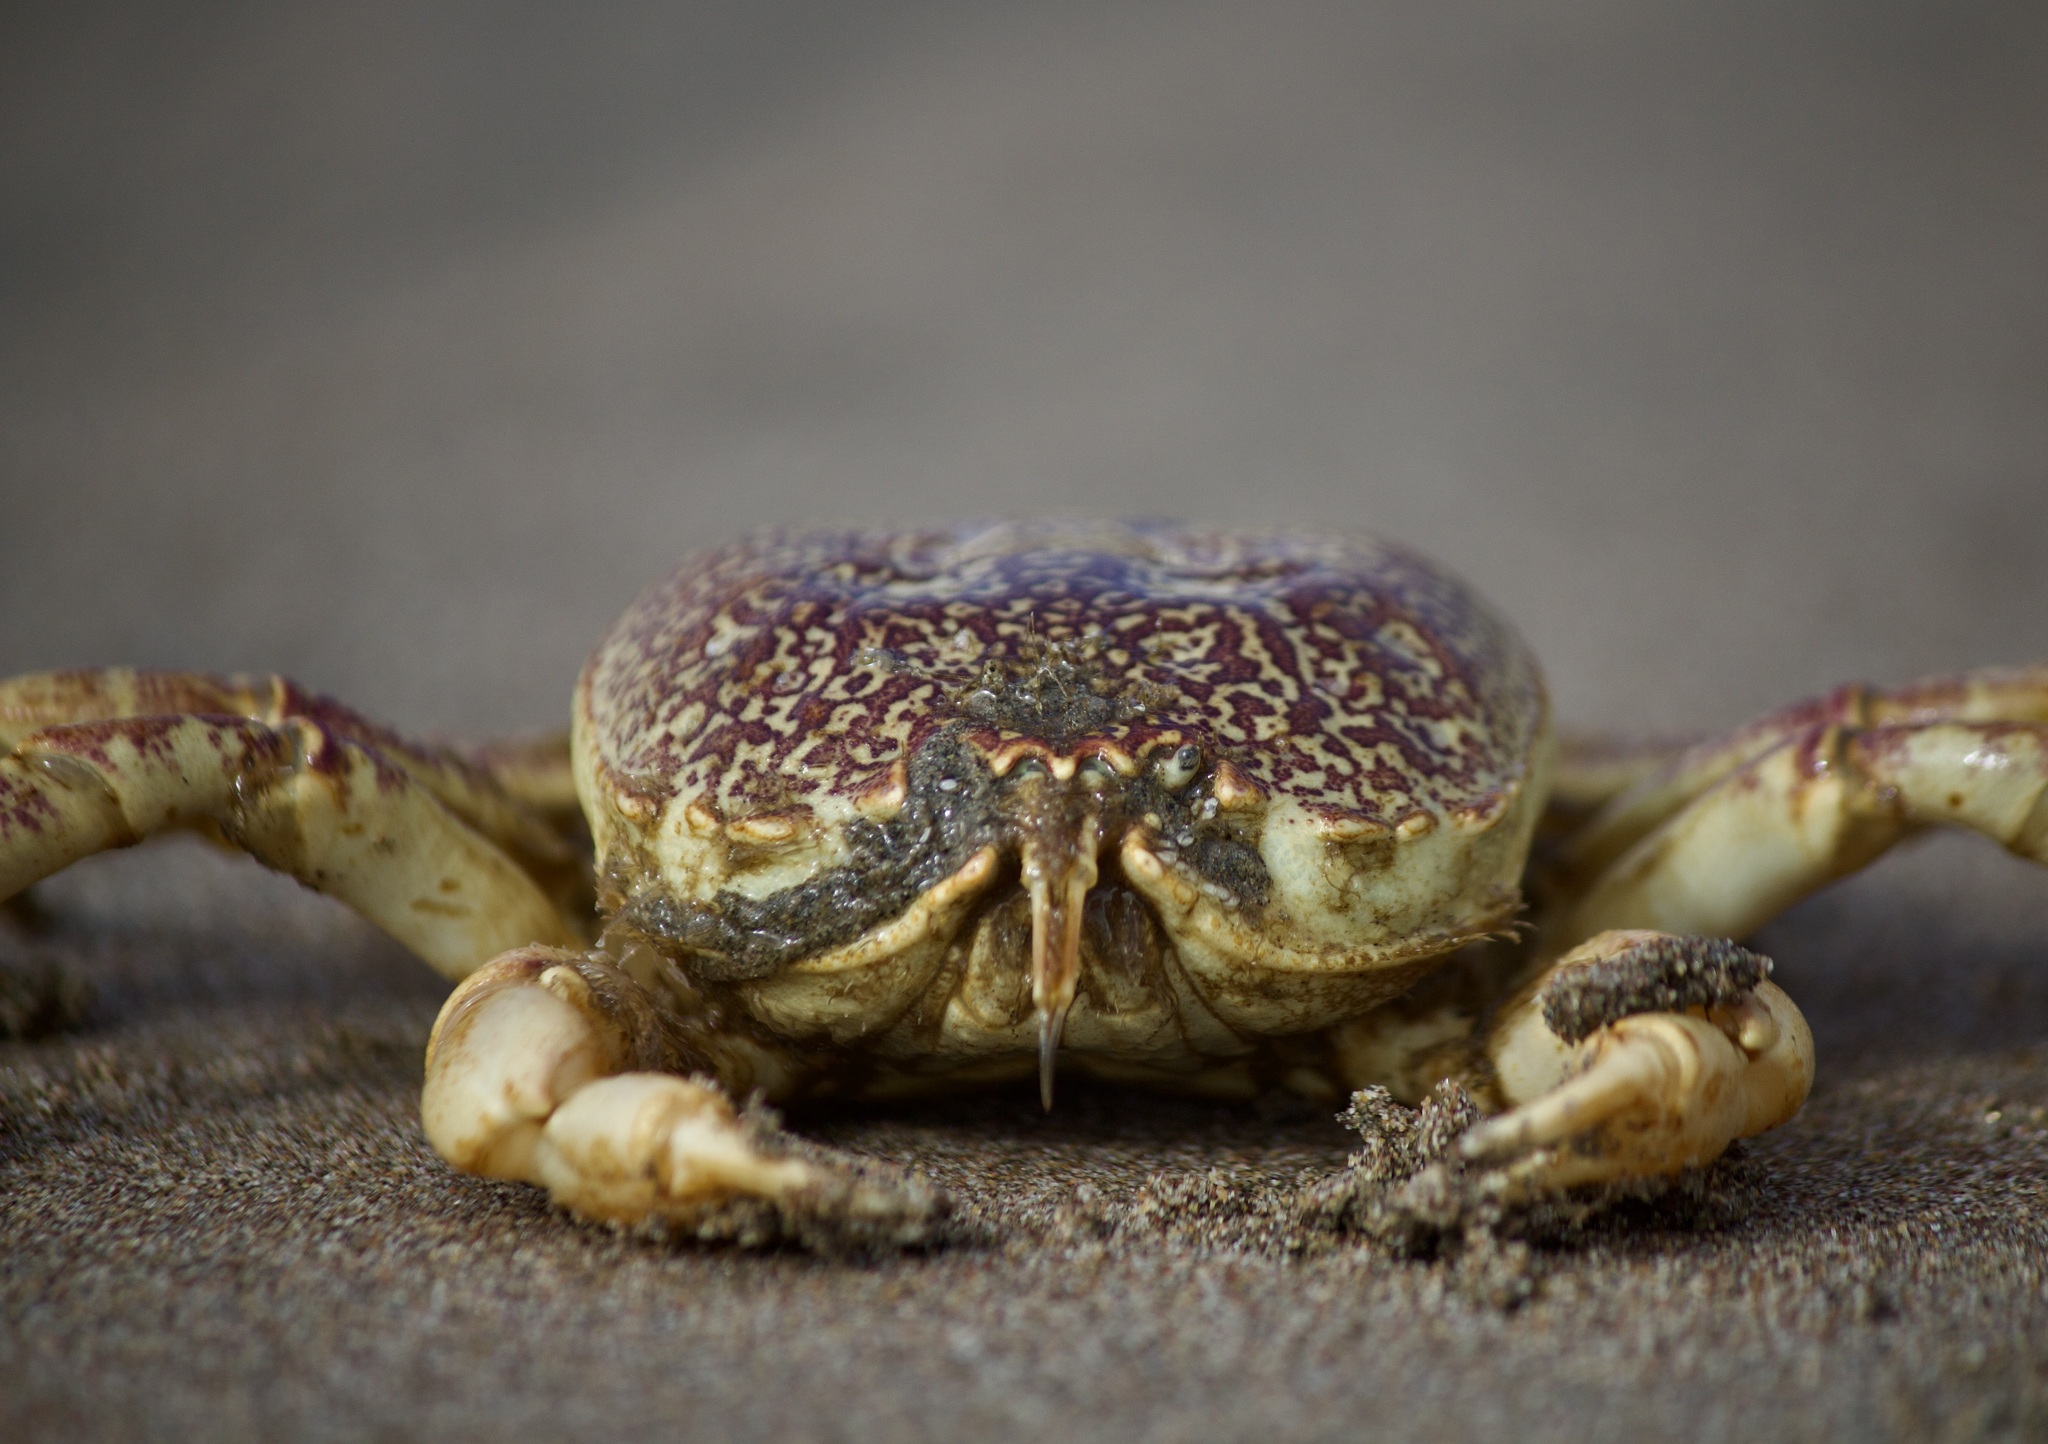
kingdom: Animalia
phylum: Arthropoda
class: Malacostraca
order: Decapoda
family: Belliidae
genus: Bellia
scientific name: Bellia picta
